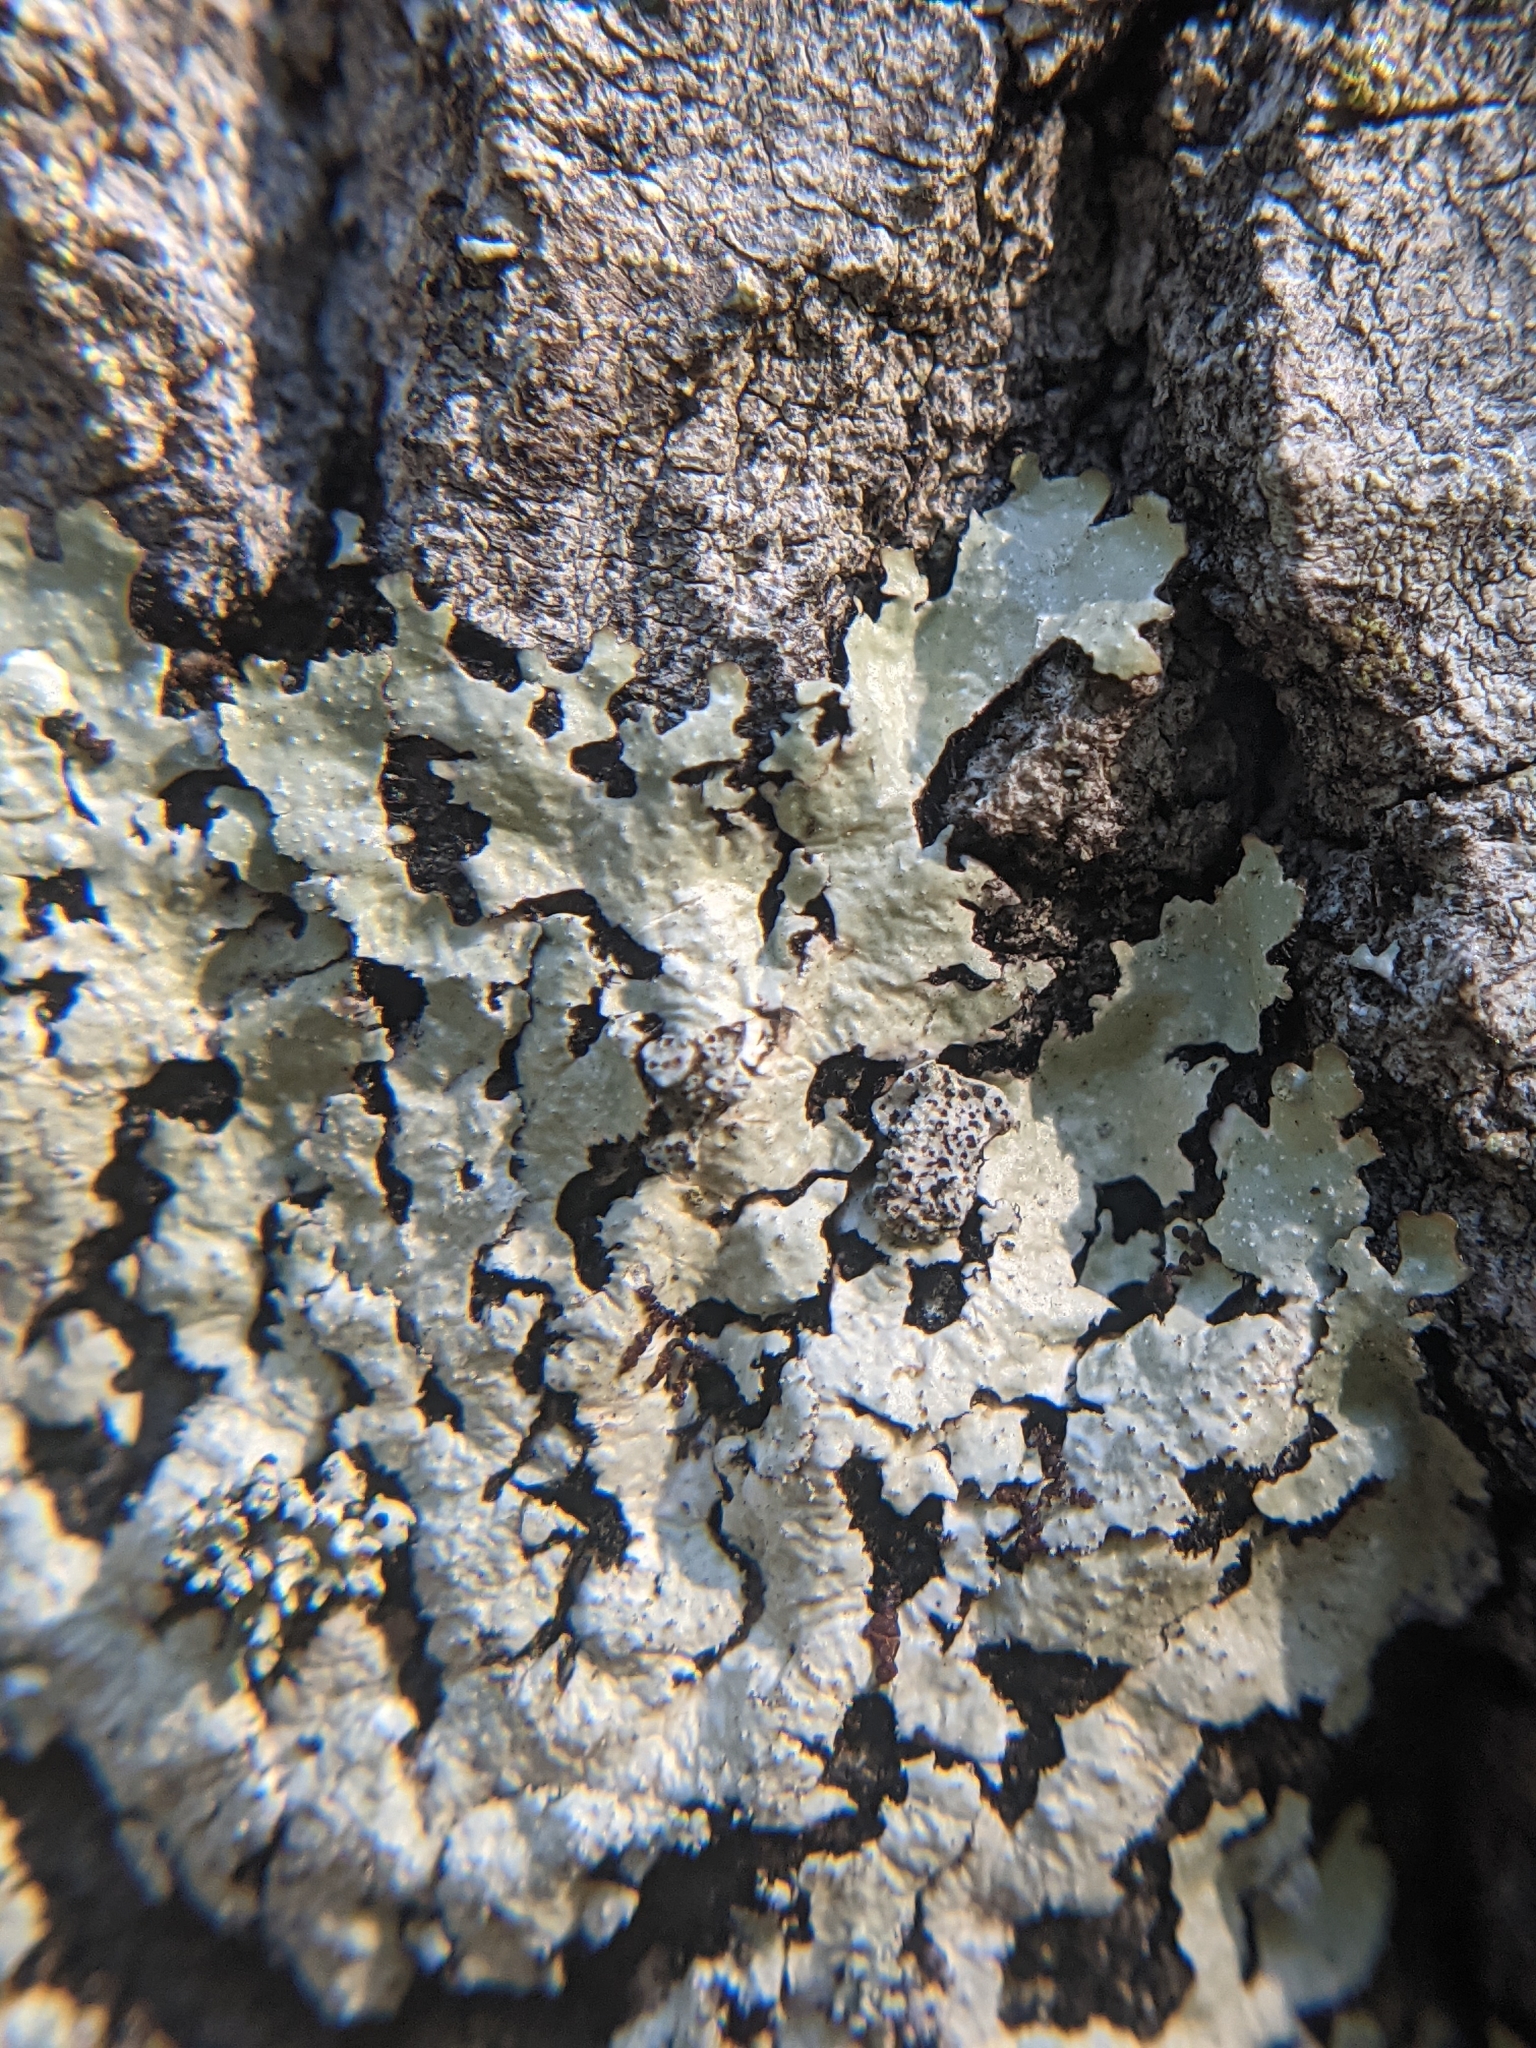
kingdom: Fungi
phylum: Ascomycota
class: Lecanoromycetes
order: Lecanorales
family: Parmeliaceae
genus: Punctelia
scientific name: Punctelia rudecta
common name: Rough speckled shield lichen
